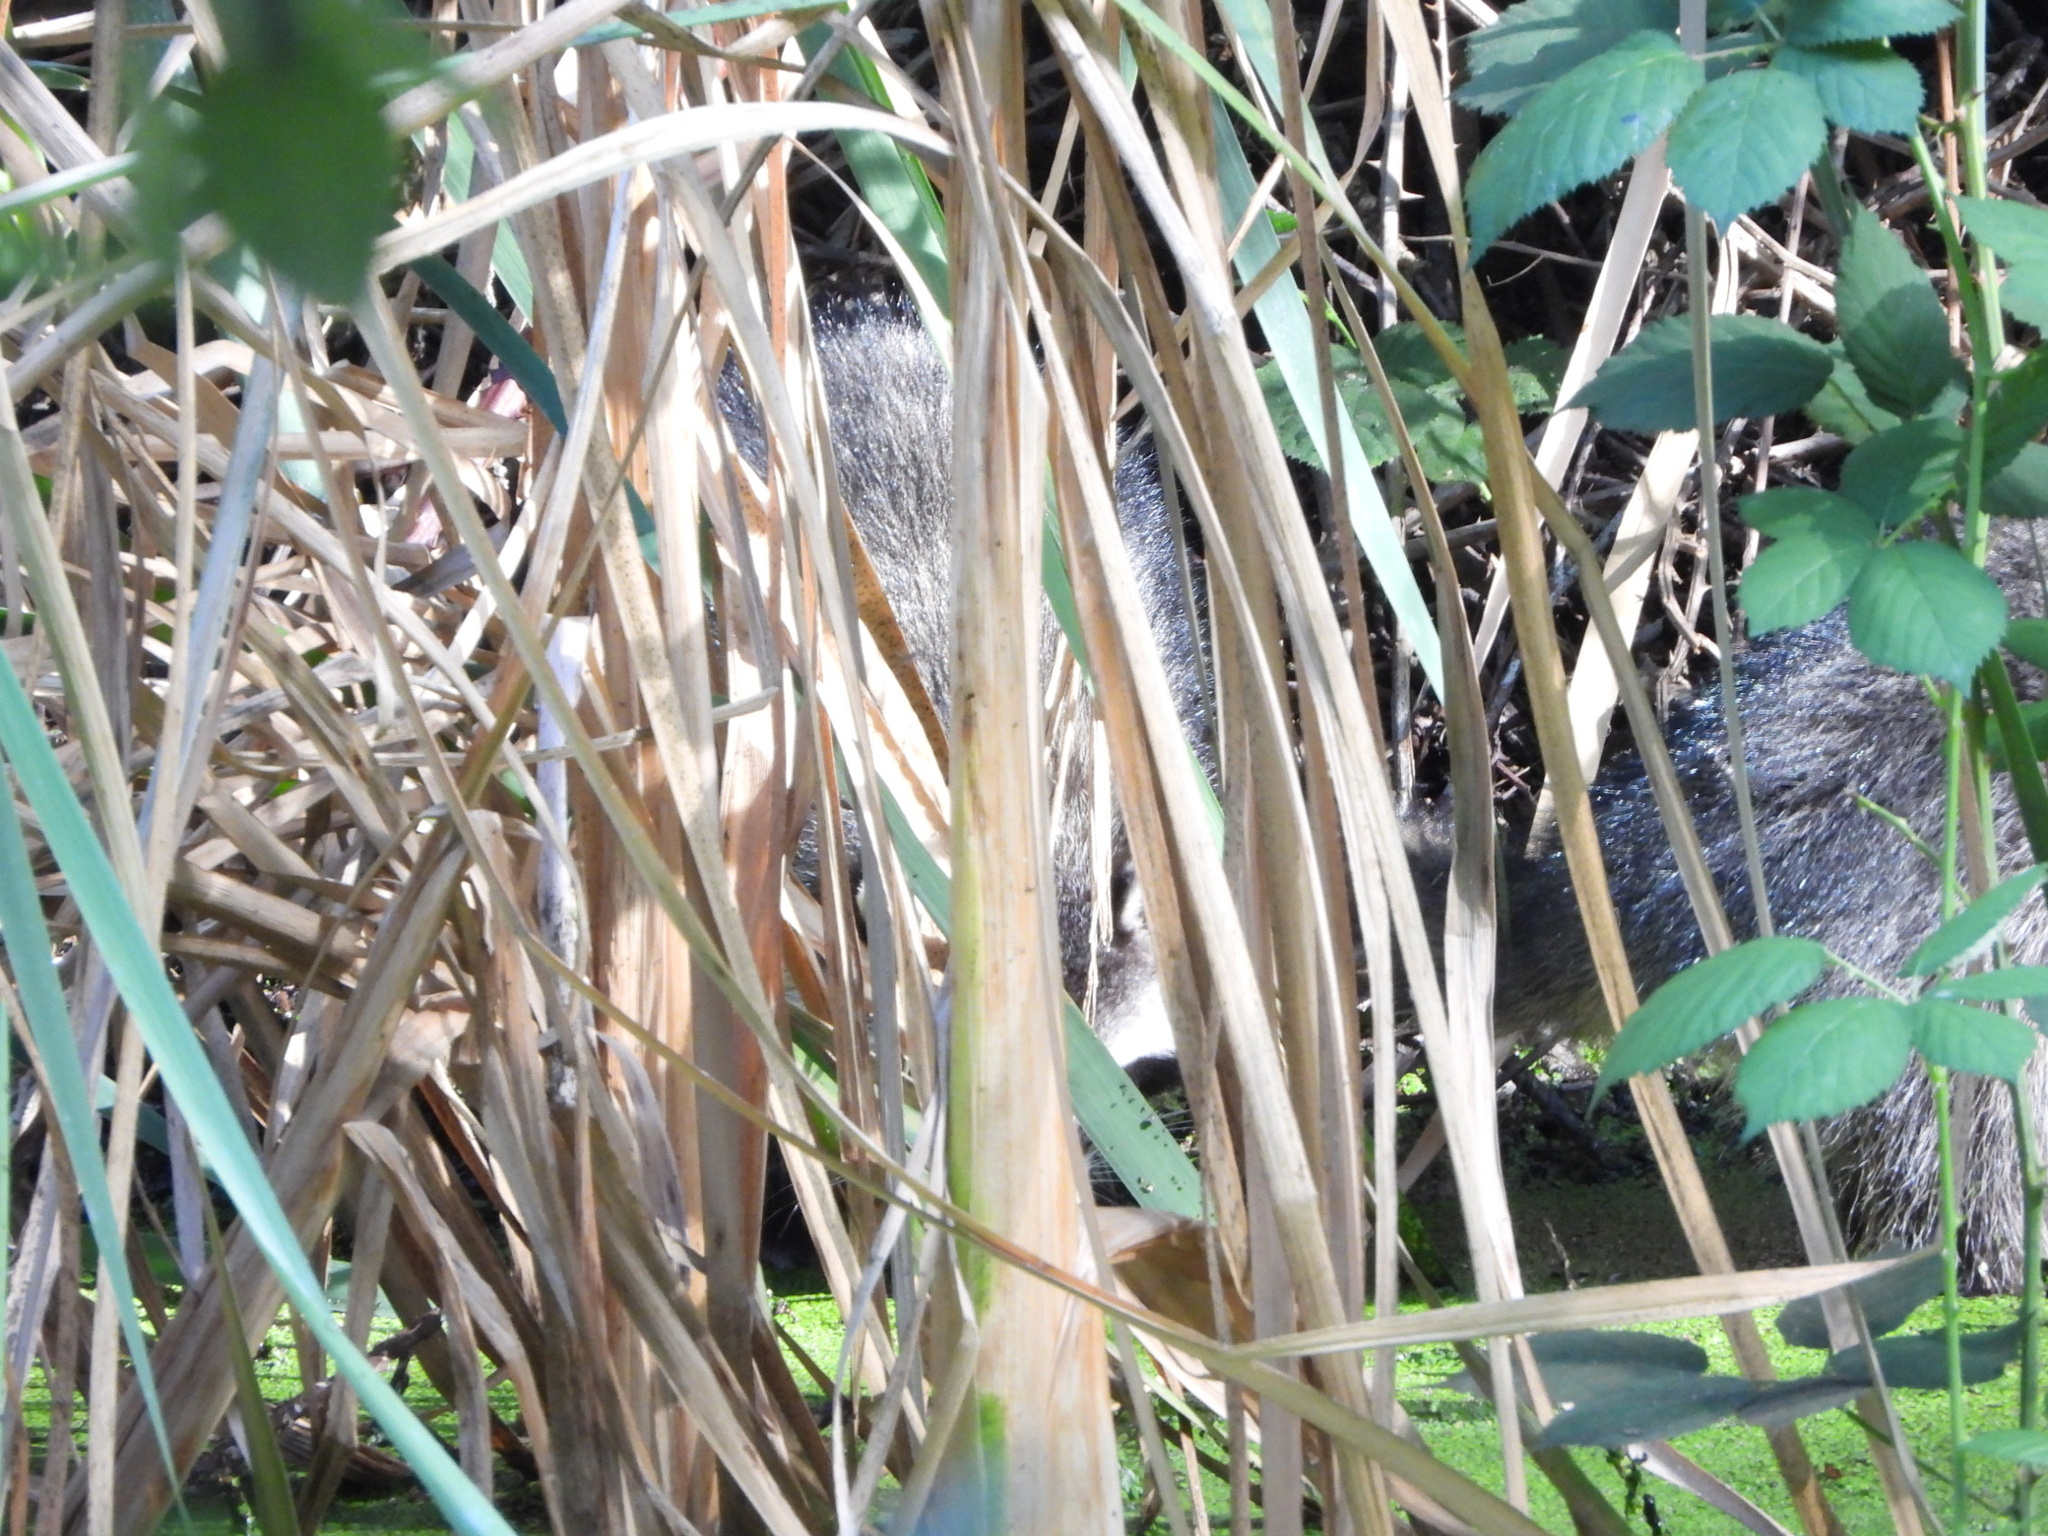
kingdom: Animalia
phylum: Chordata
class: Mammalia
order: Carnivora
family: Procyonidae
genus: Procyon
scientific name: Procyon lotor
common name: Raccoon
